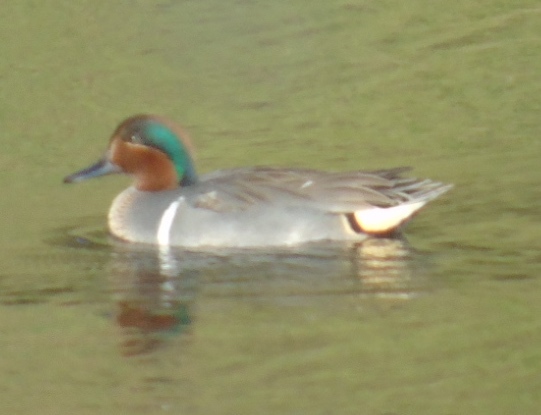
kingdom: Animalia
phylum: Chordata
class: Aves
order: Anseriformes
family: Anatidae
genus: Anas
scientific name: Anas carolinensis
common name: Green-winged teal
